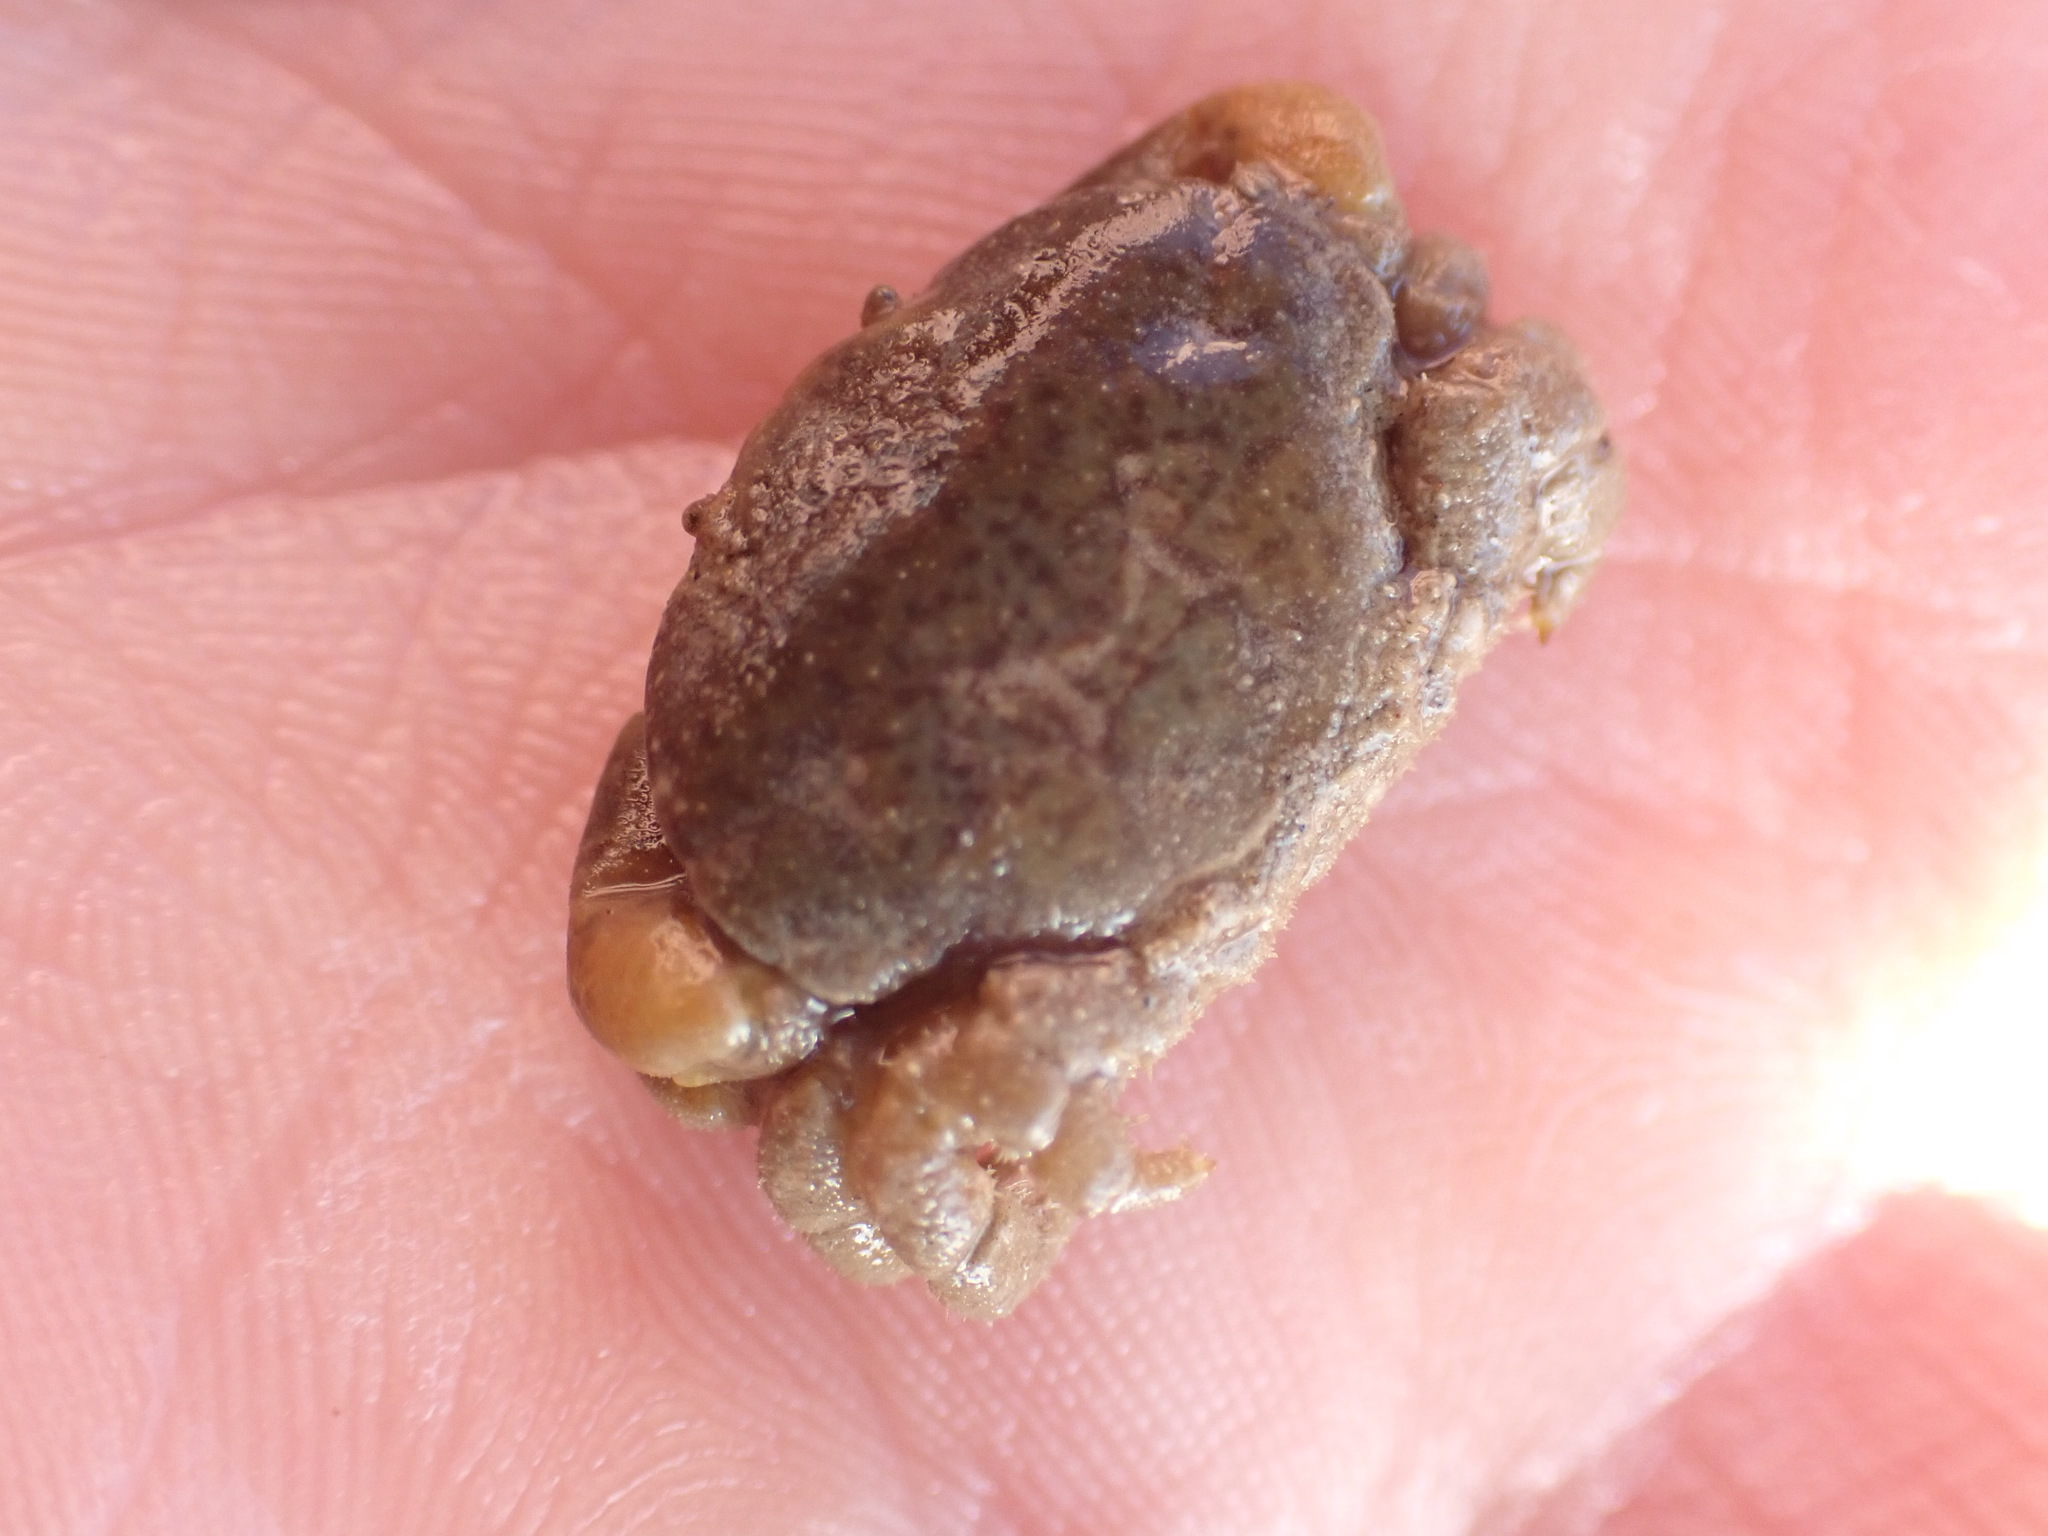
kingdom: Animalia
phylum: Arthropoda
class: Malacostraca
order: Decapoda
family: Heteroziidae
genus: Heterozius
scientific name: Heterozius rotundifrons
